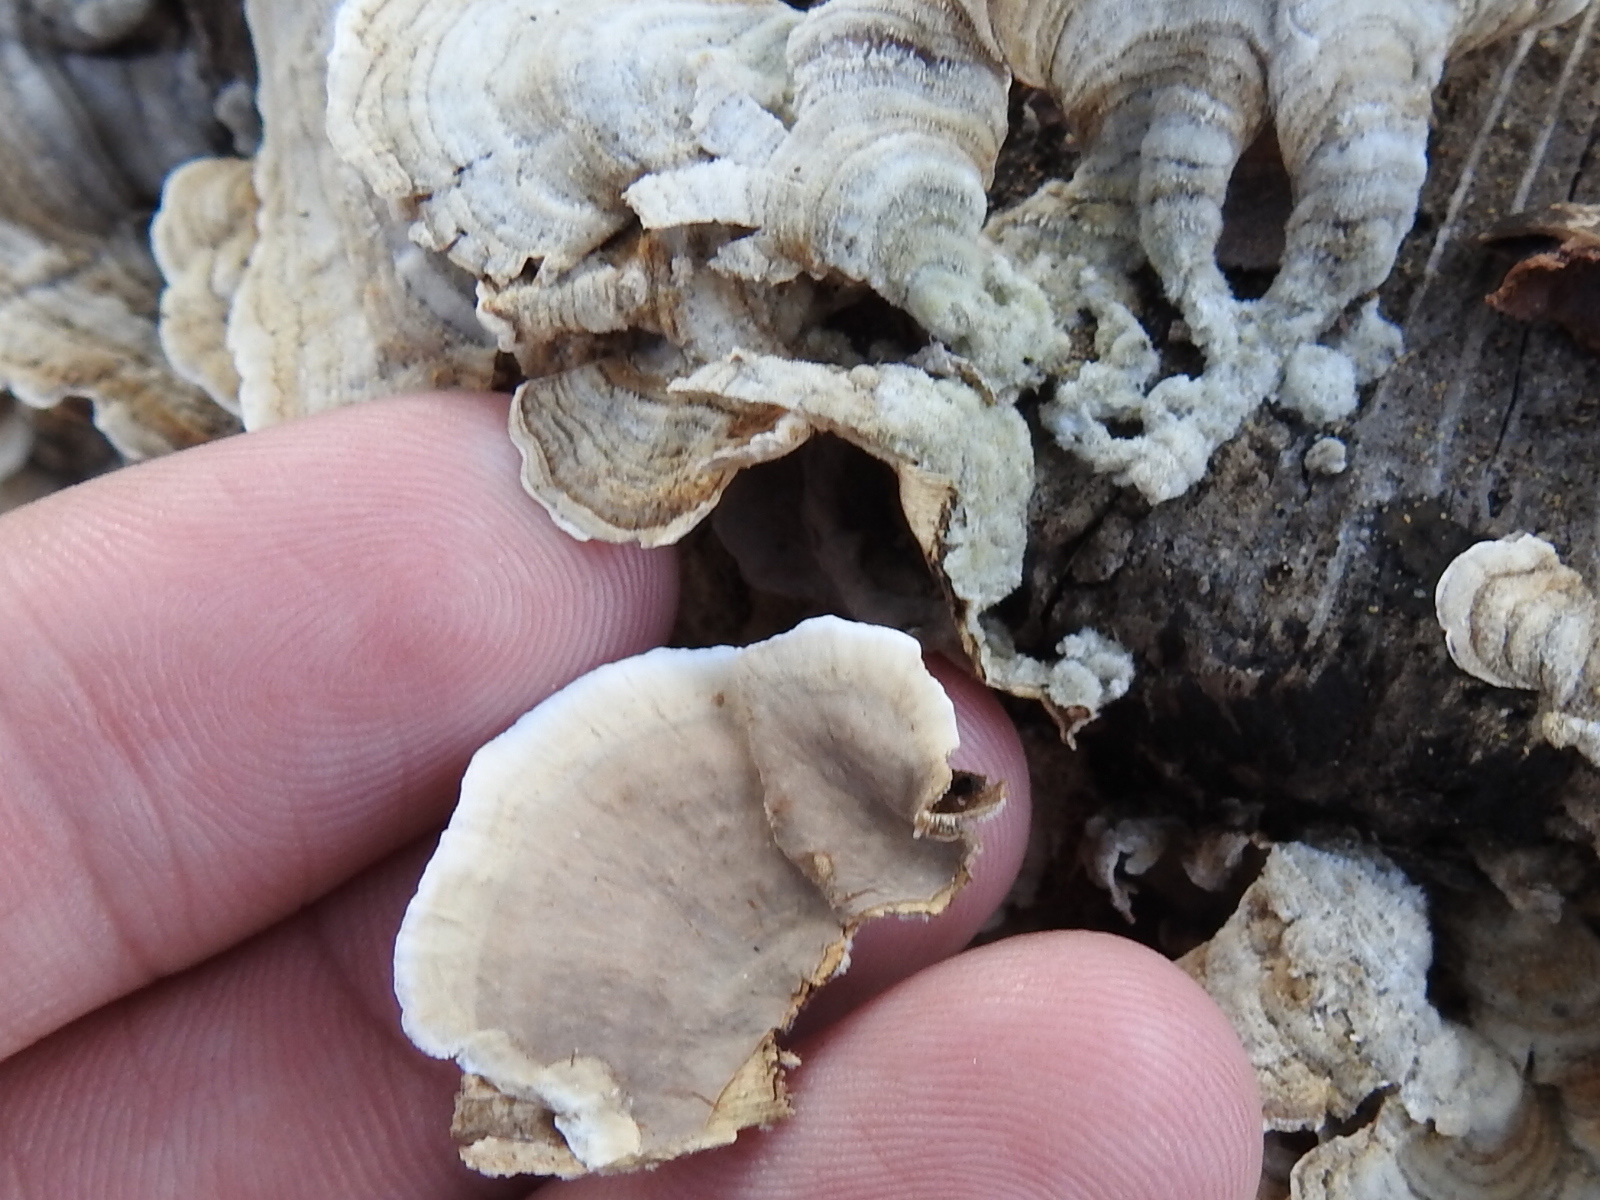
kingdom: Fungi
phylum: Basidiomycota
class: Agaricomycetes
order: Russulales
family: Stereaceae
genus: Stereum
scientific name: Stereum ostrea
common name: False turkeytail
